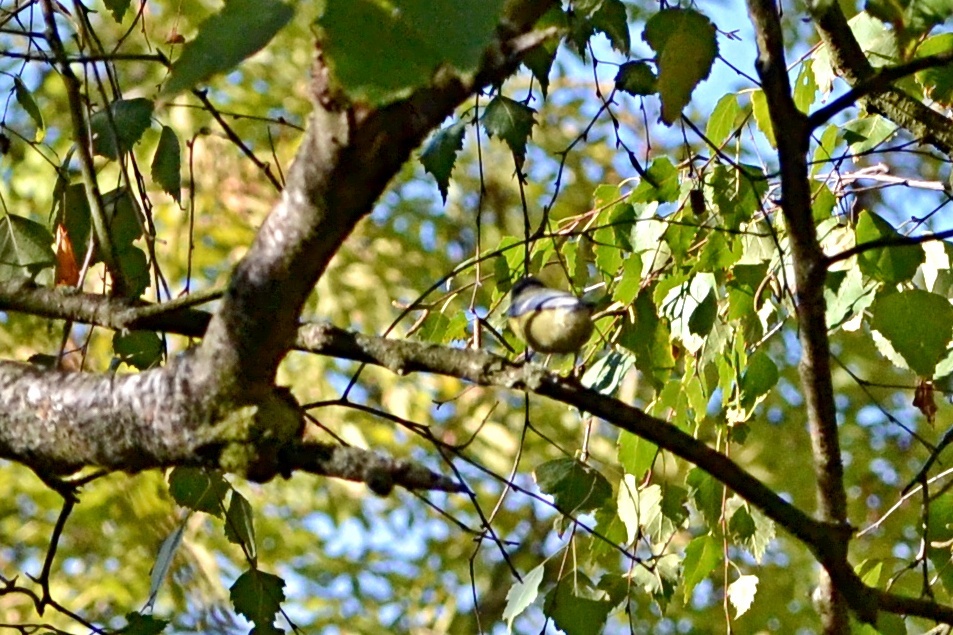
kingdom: Animalia
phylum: Chordata
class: Aves
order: Passeriformes
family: Paridae
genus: Cyanistes
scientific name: Cyanistes caeruleus
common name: Eurasian blue tit
